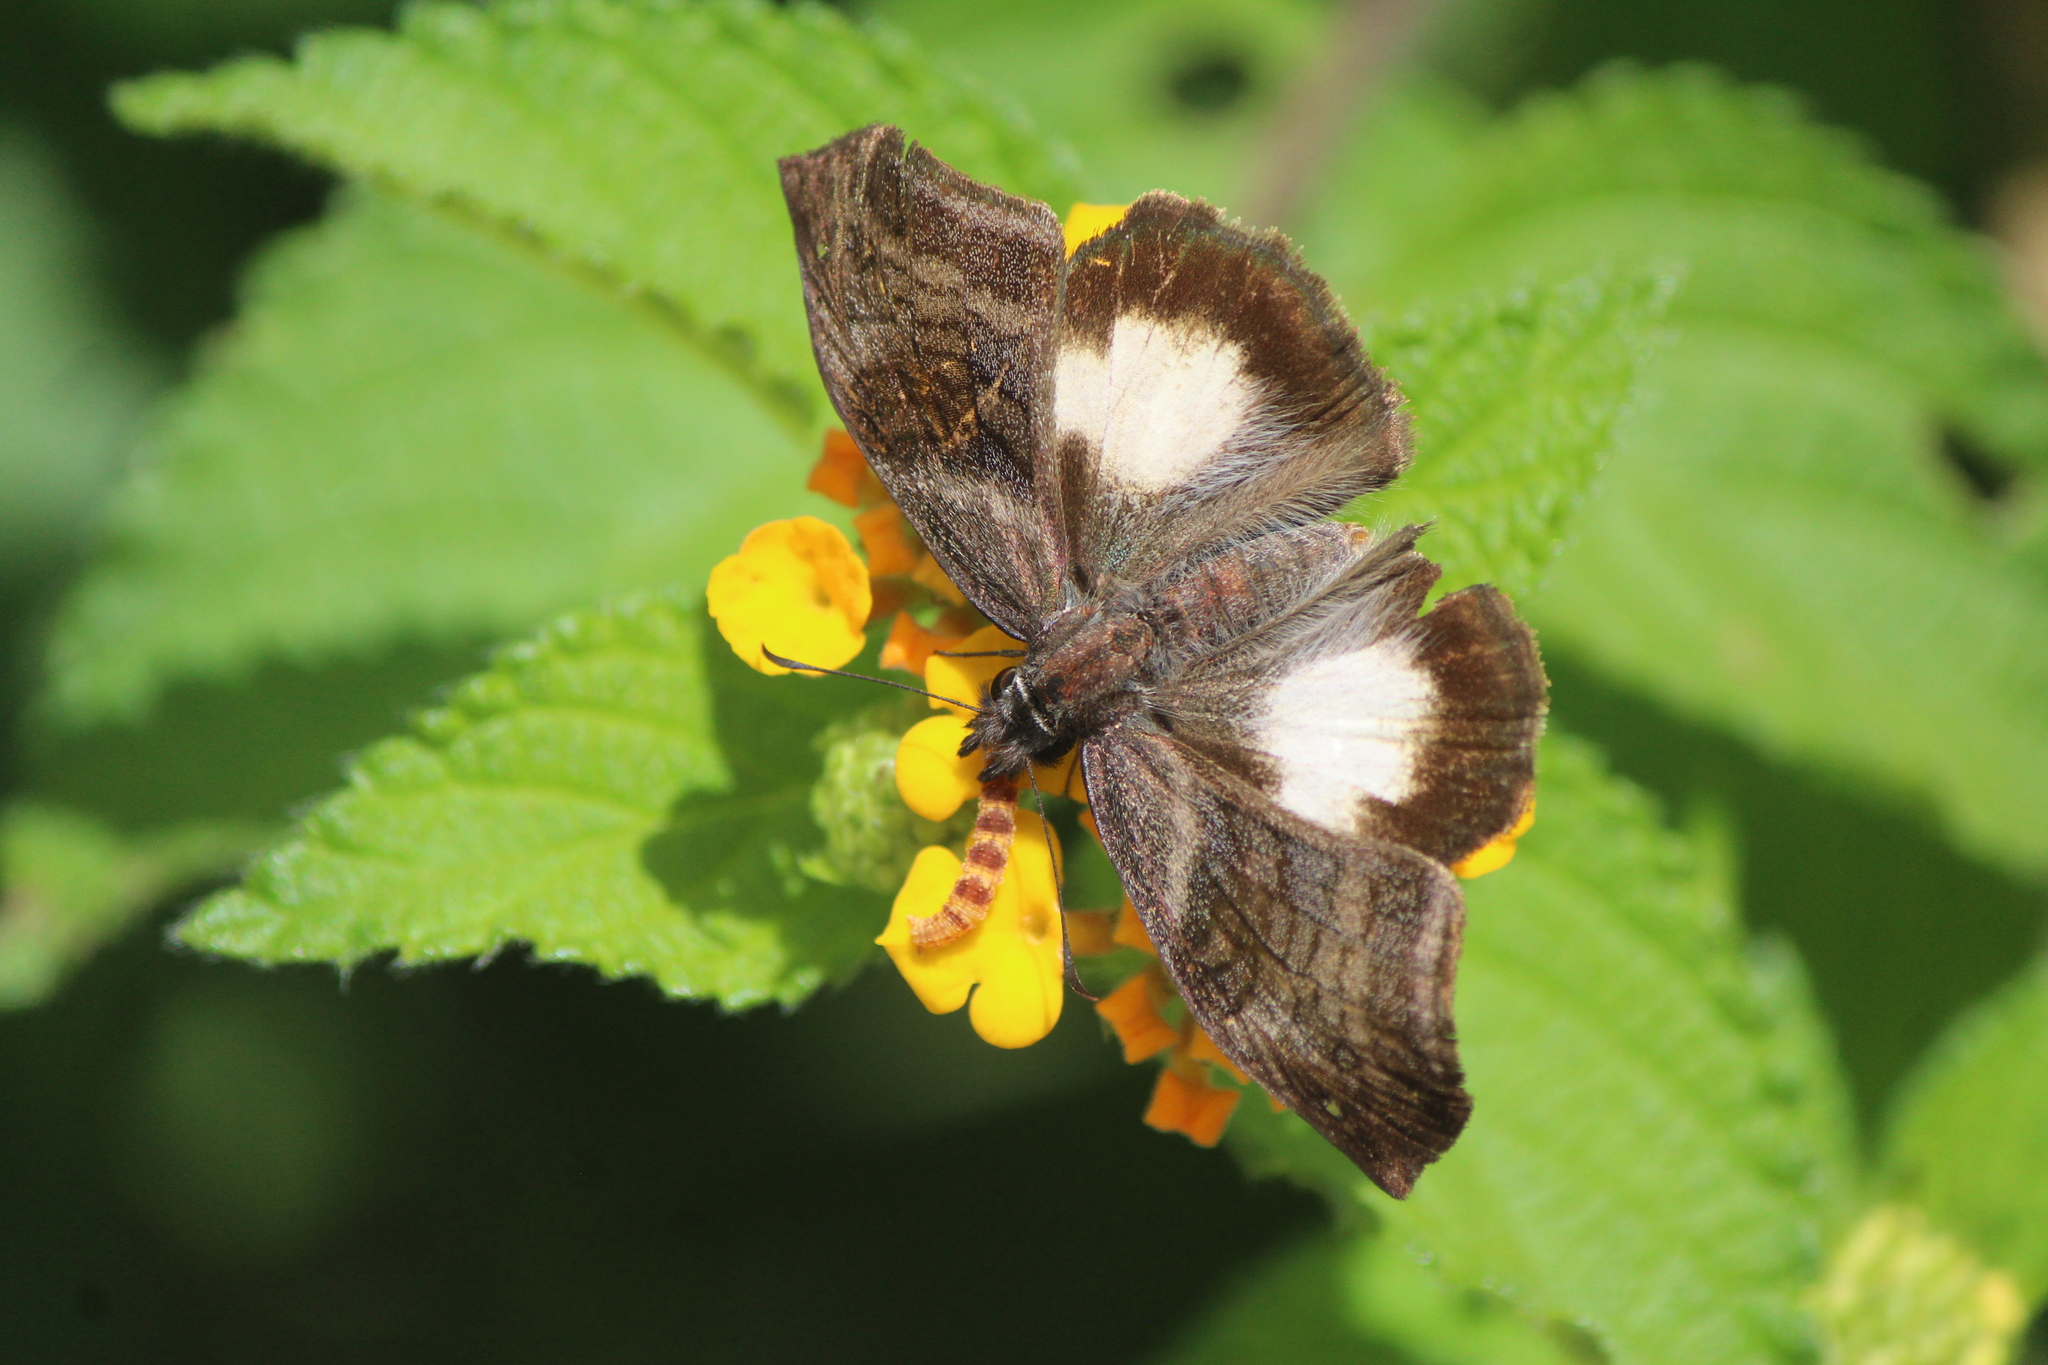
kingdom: Animalia
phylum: Arthropoda
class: Insecta
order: Lepidoptera
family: Hesperiidae
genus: Theagenes
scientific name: Theagenes
